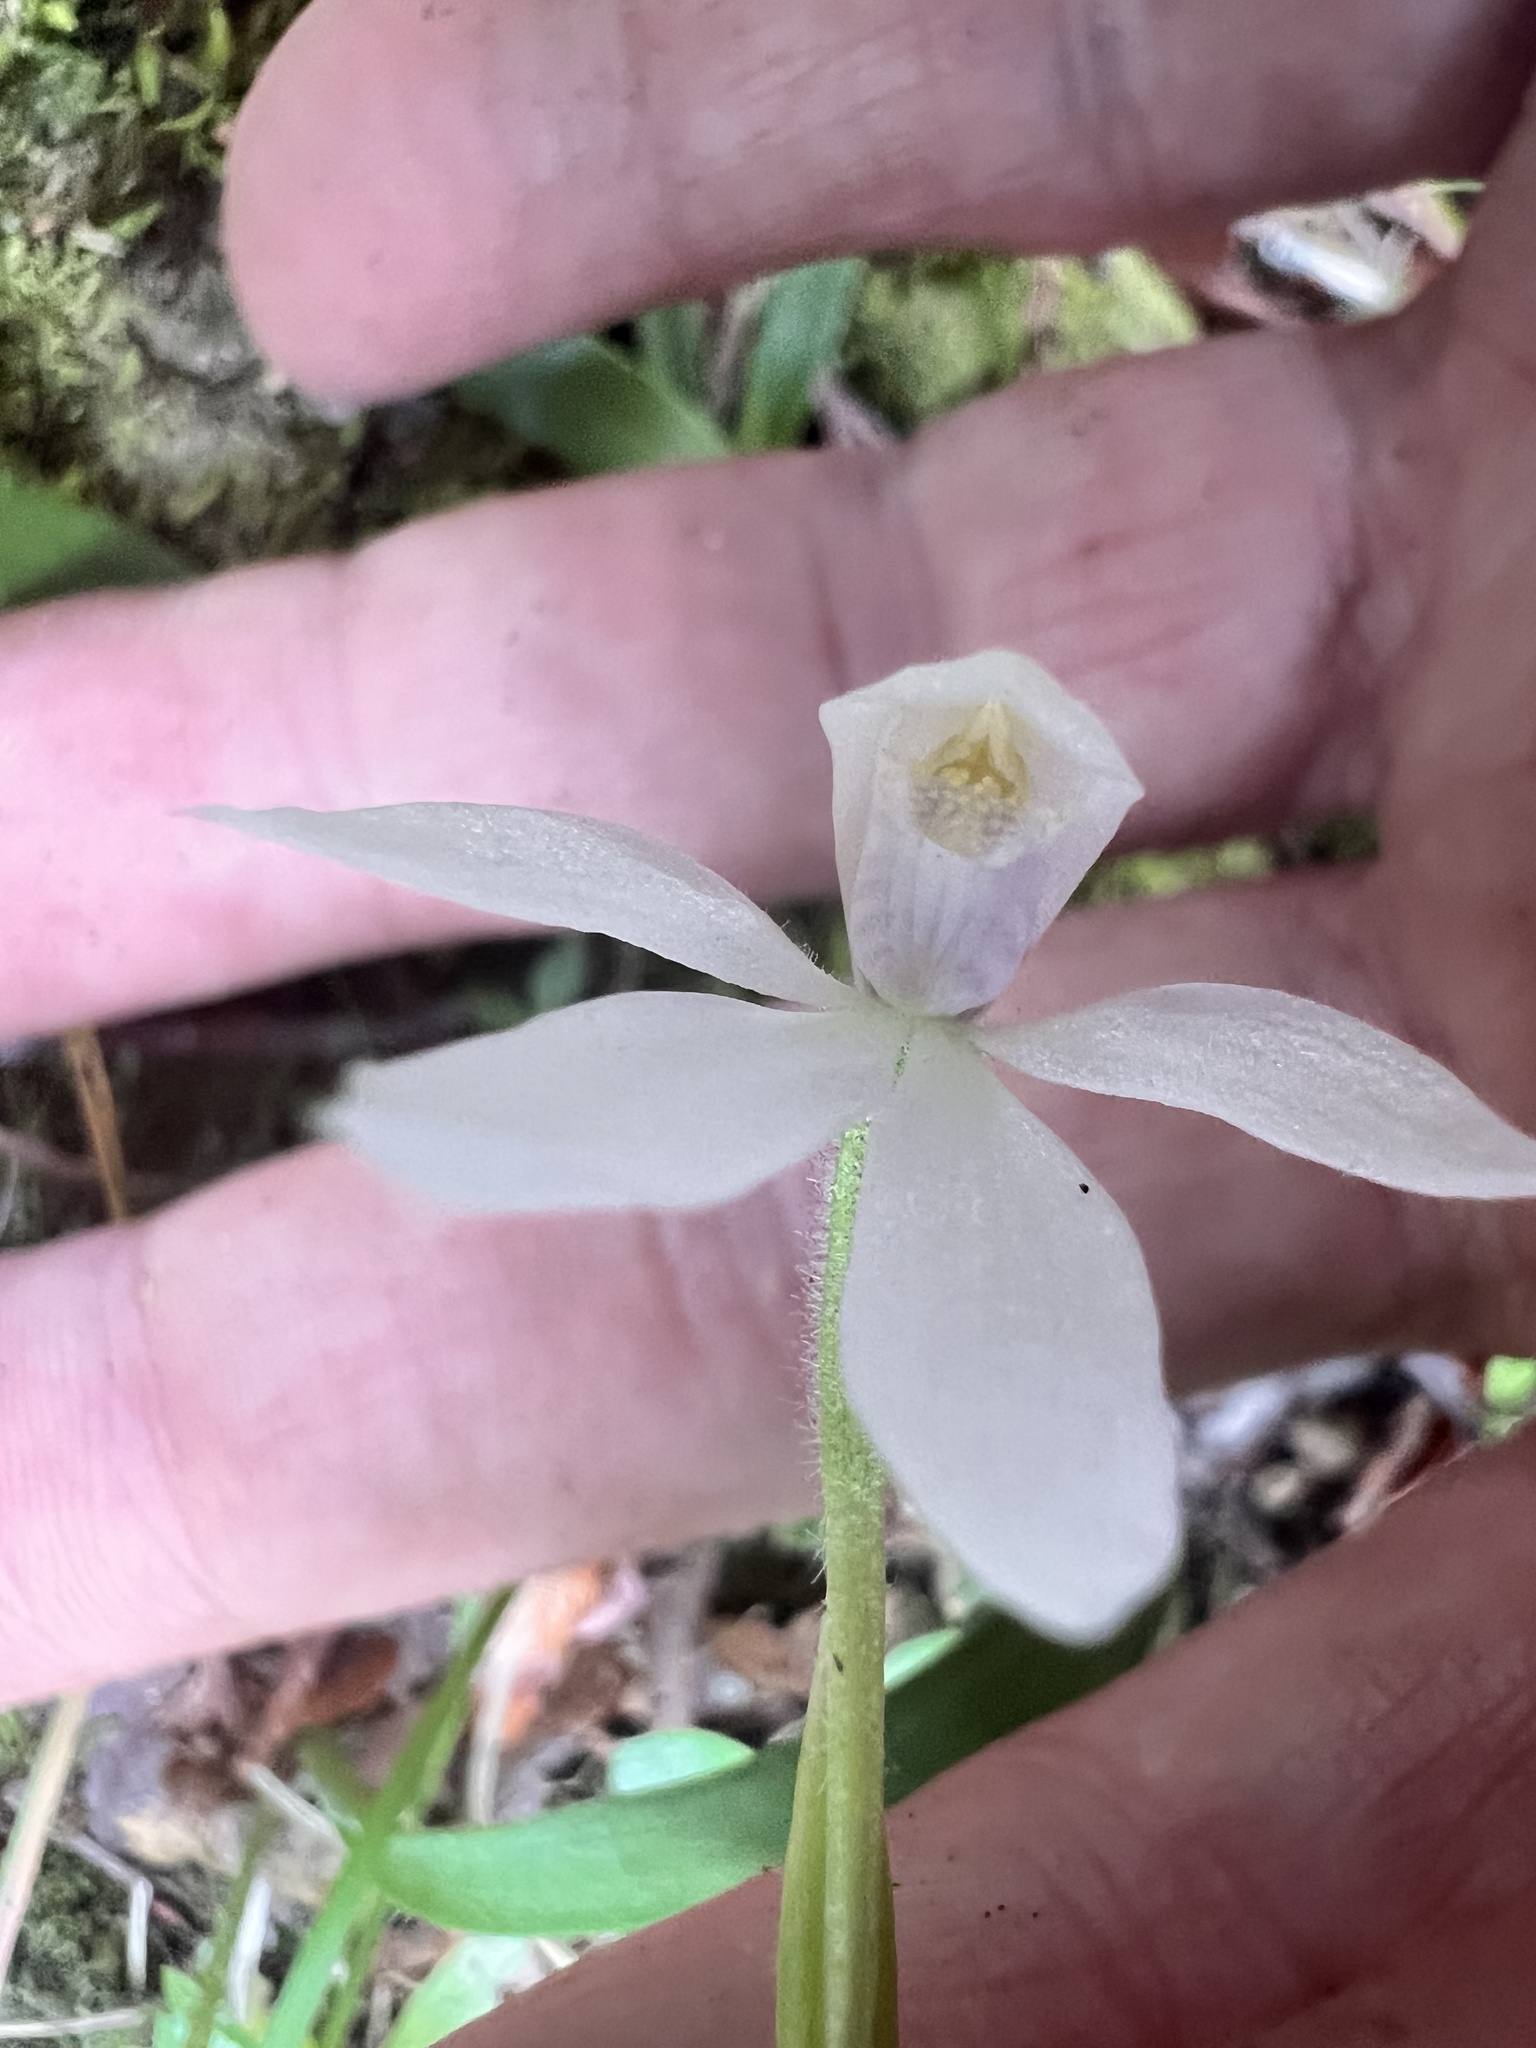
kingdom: Plantae
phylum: Tracheophyta
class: Liliopsida
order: Asparagales
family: Orchidaceae
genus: Caladenia
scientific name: Caladenia lyallii
